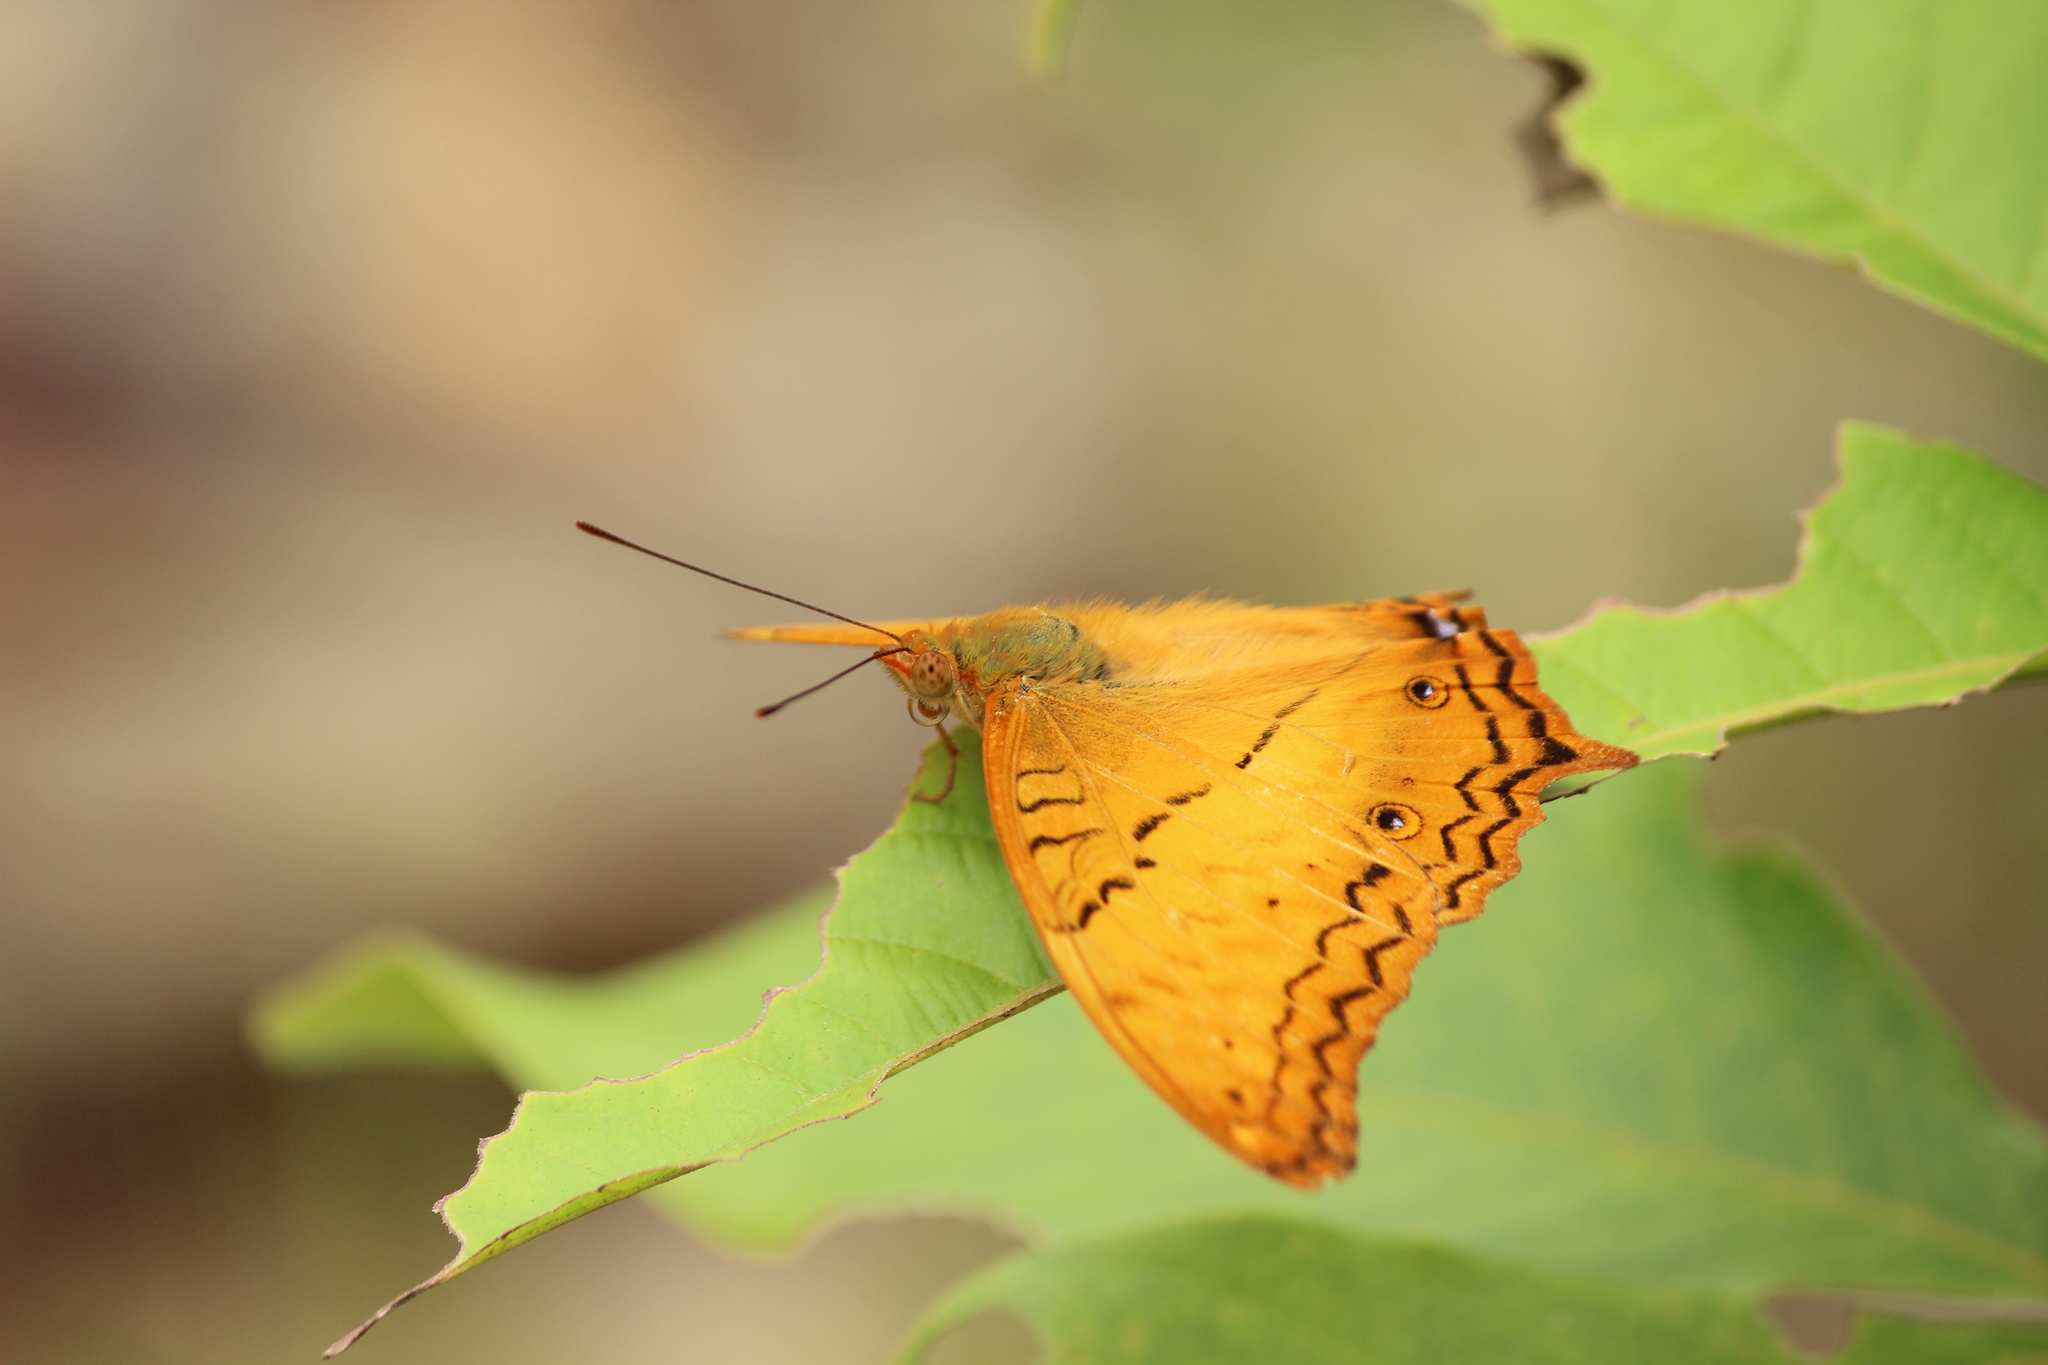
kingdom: Animalia
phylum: Arthropoda
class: Insecta
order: Lepidoptera
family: Nymphalidae
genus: Vindula
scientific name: Vindula erota
